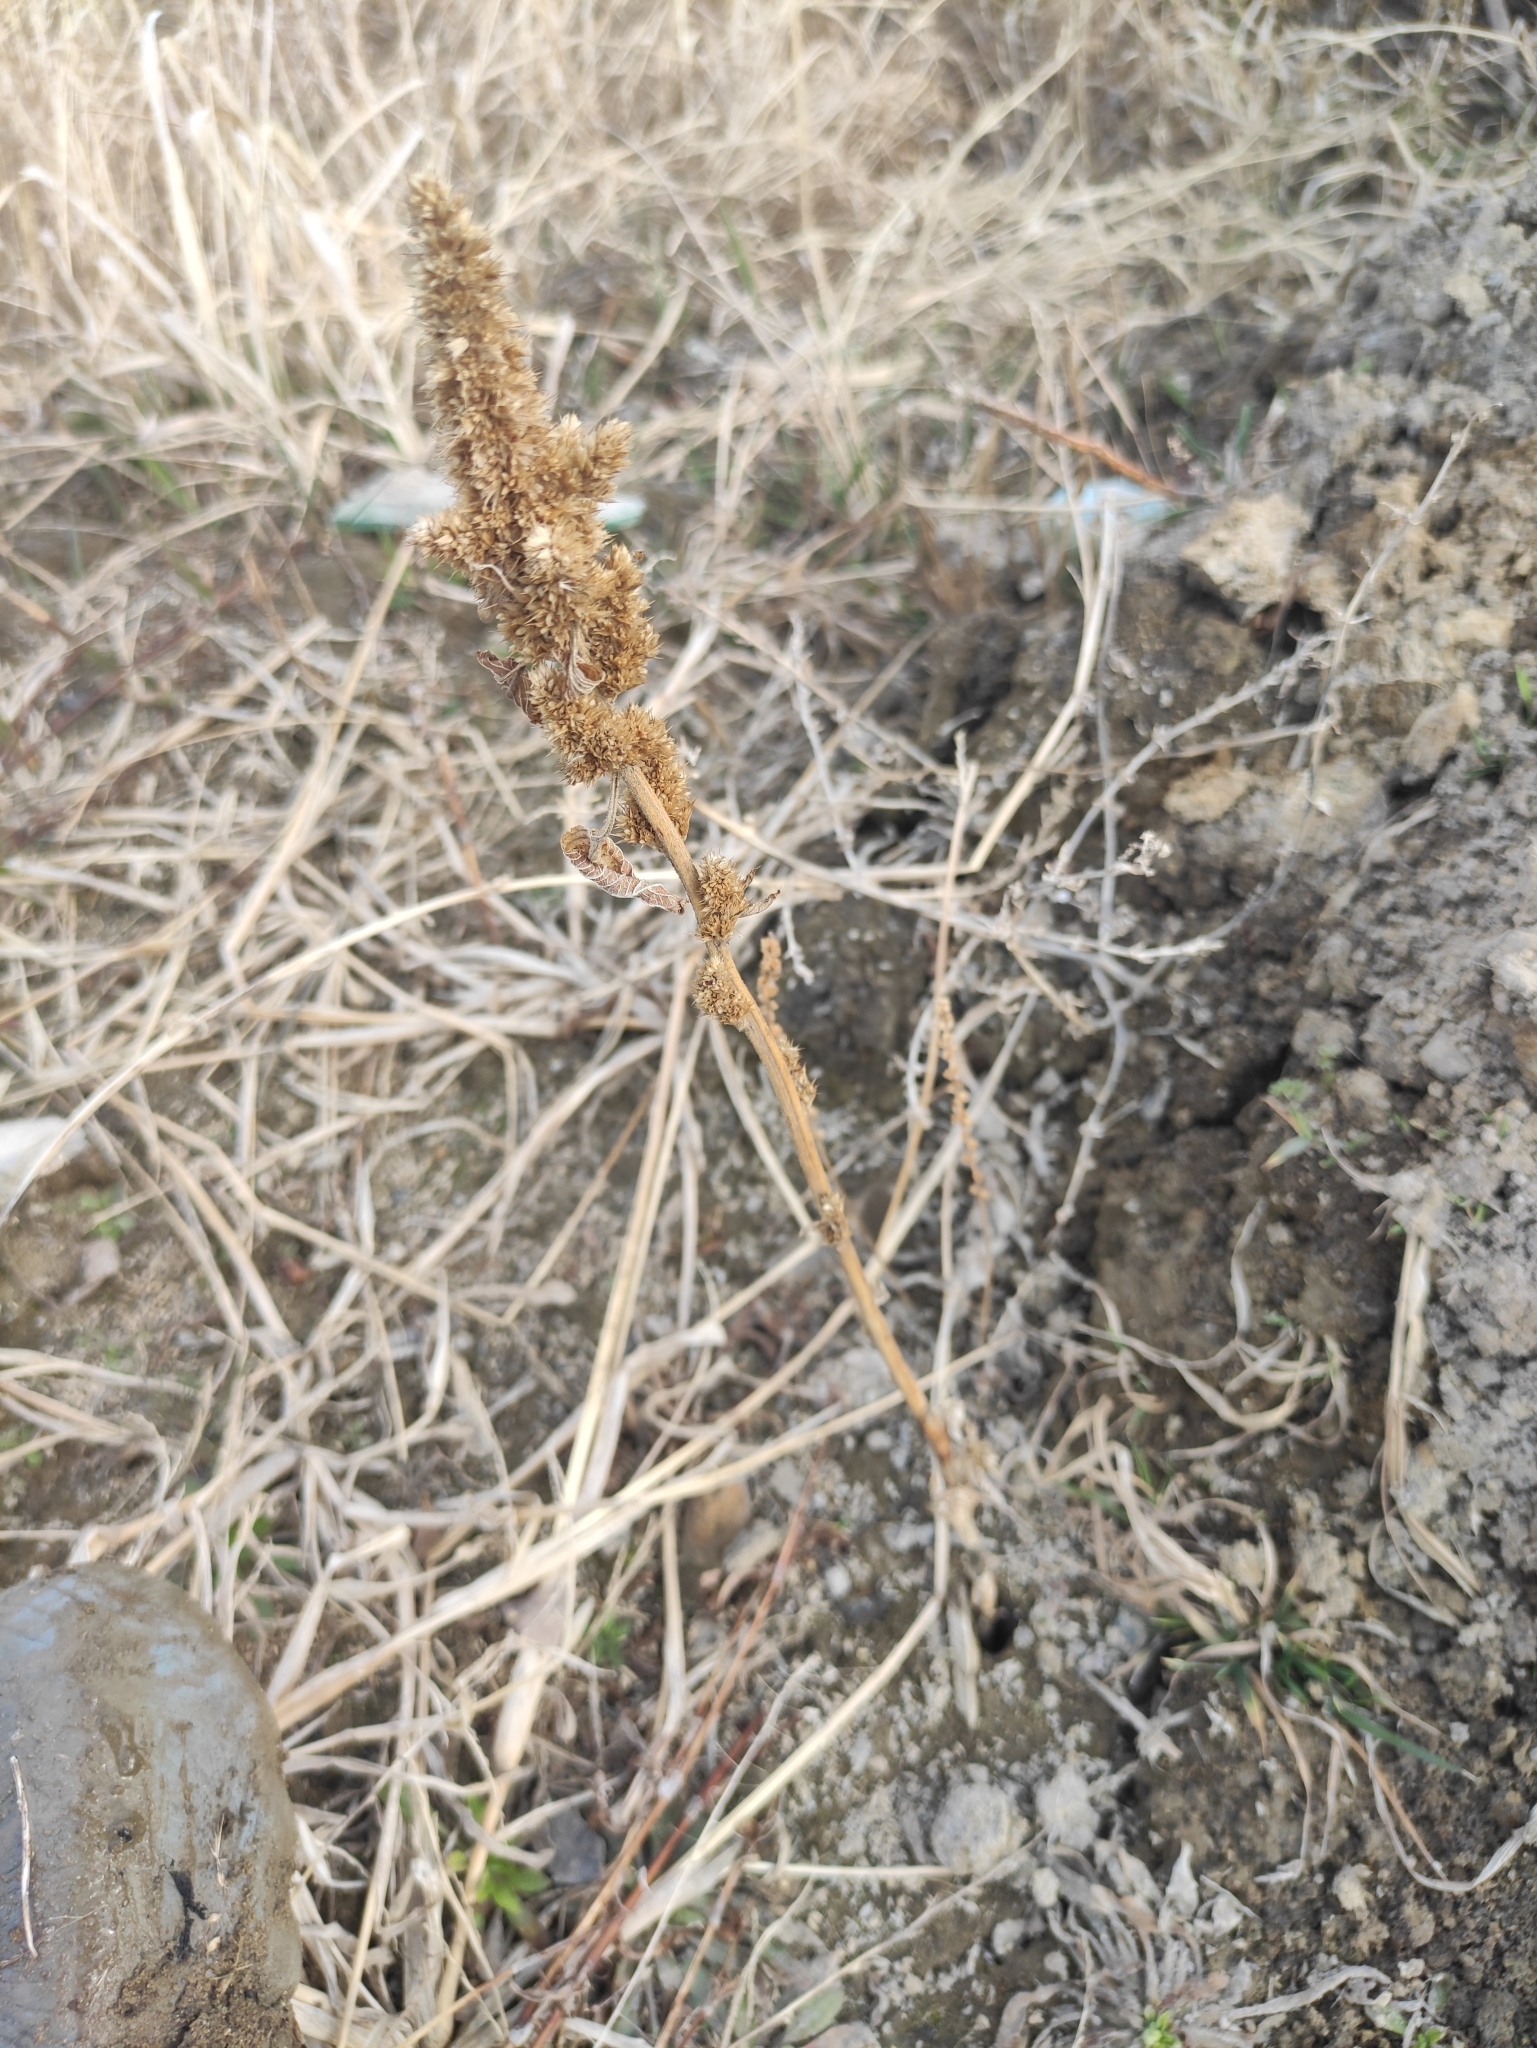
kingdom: Plantae
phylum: Tracheophyta
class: Magnoliopsida
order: Caryophyllales
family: Amaranthaceae
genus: Amaranthus
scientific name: Amaranthus retroflexus
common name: Redroot amaranth
